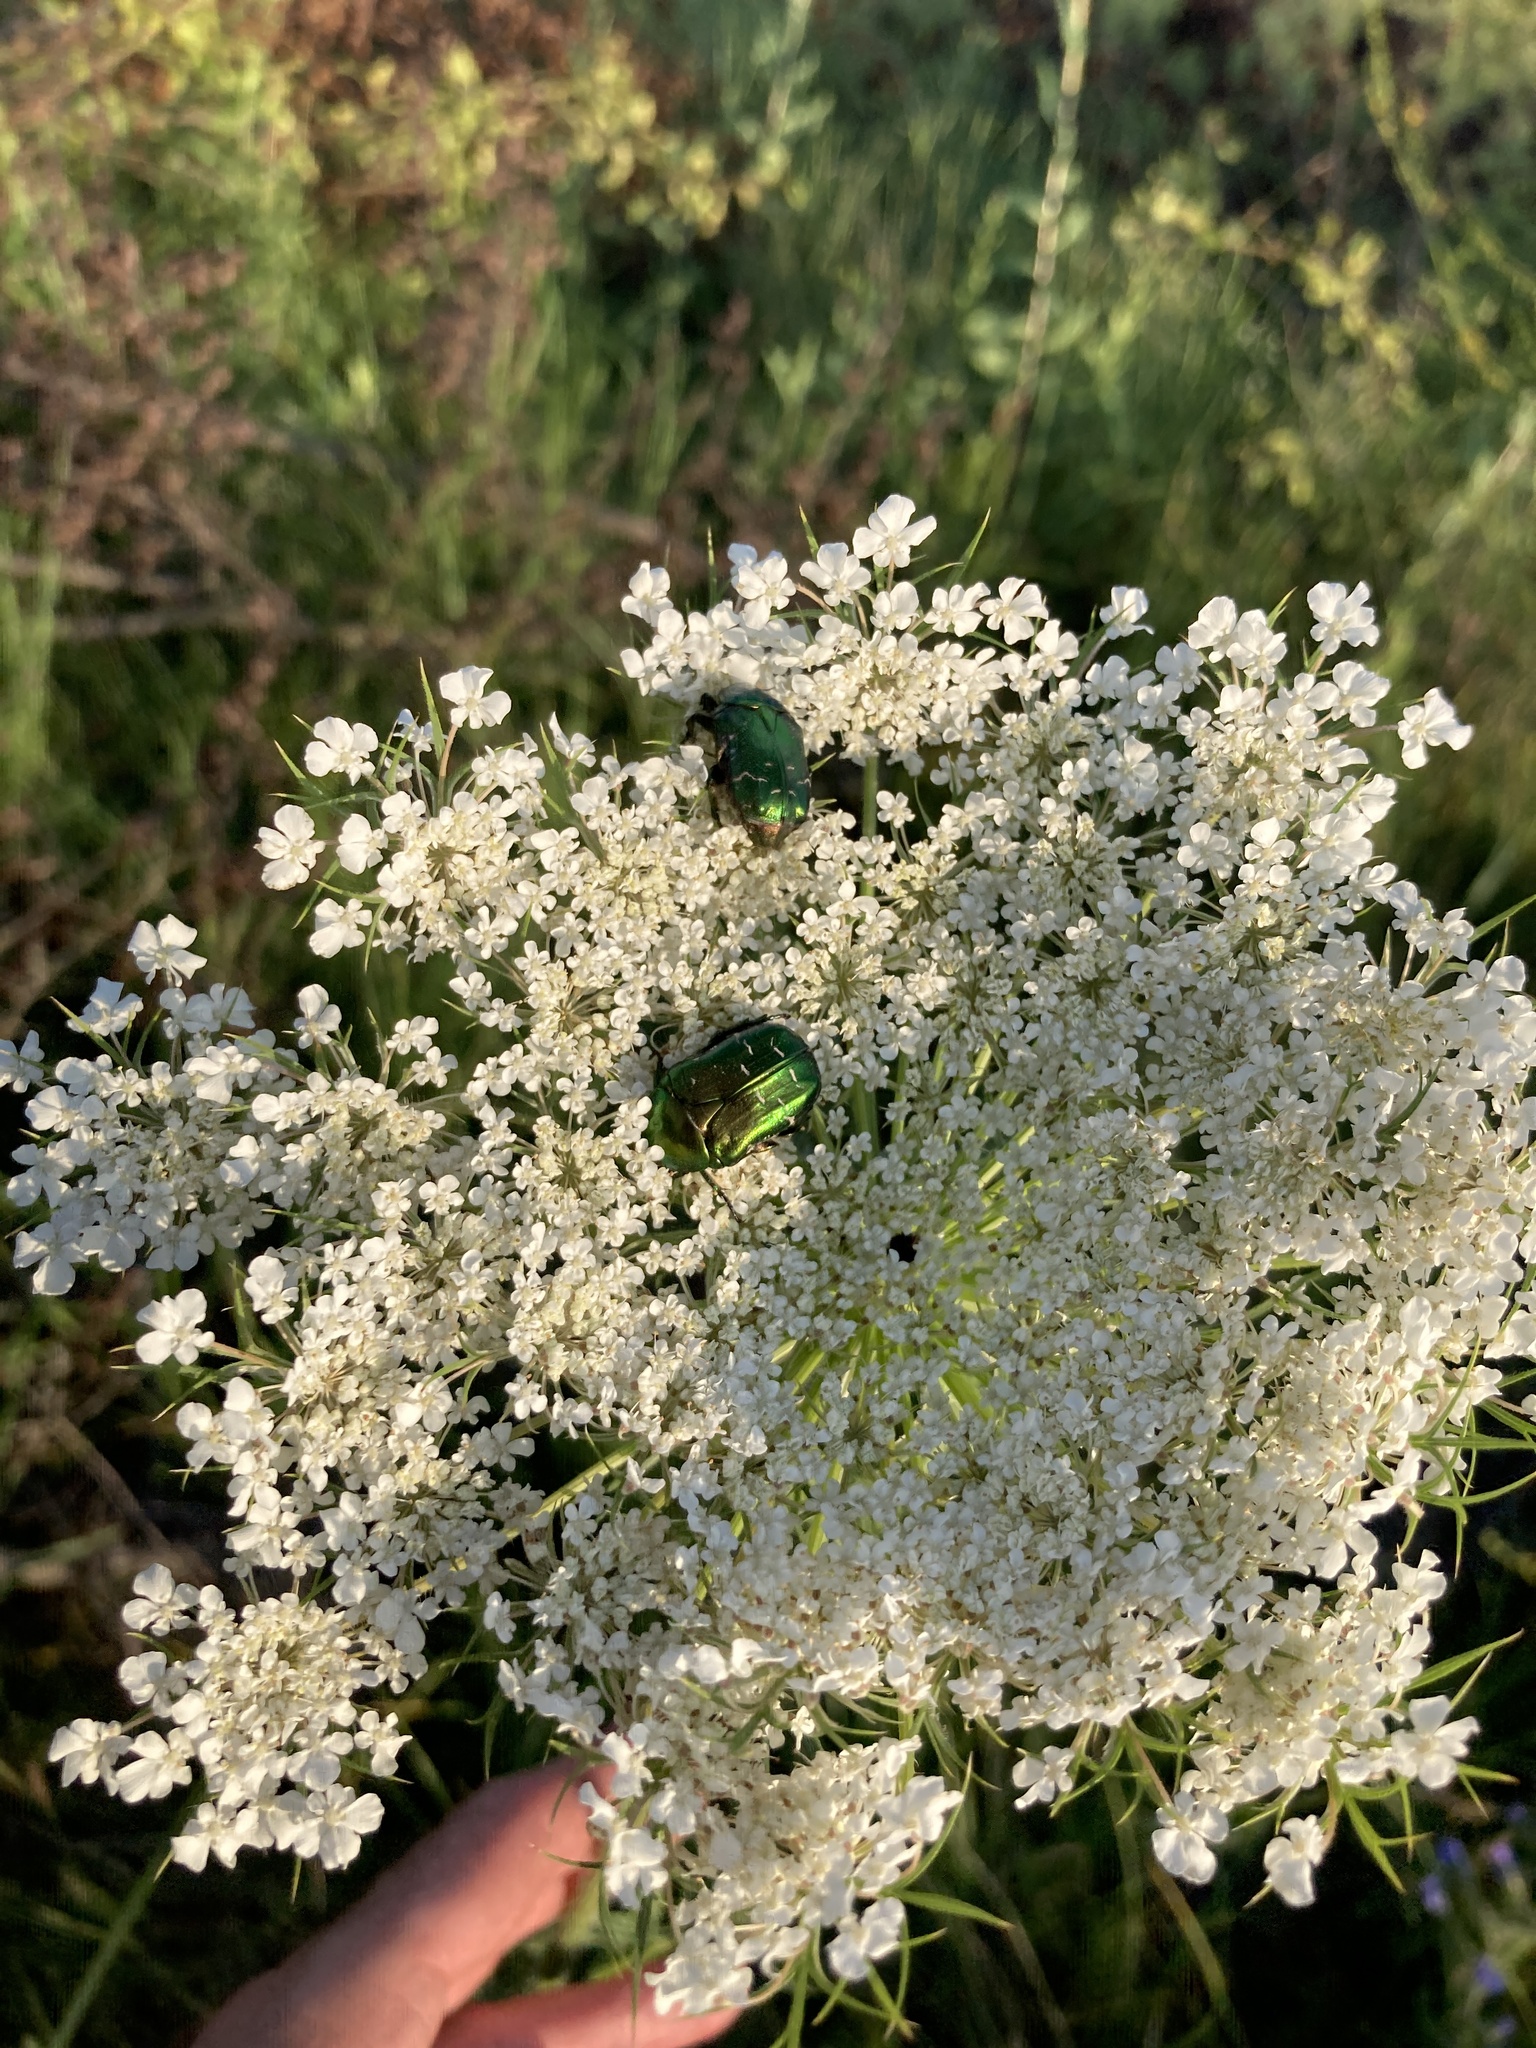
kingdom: Plantae
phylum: Tracheophyta
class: Magnoliopsida
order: Apiales
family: Apiaceae
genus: Daucus
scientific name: Daucus carota
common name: Wild carrot
